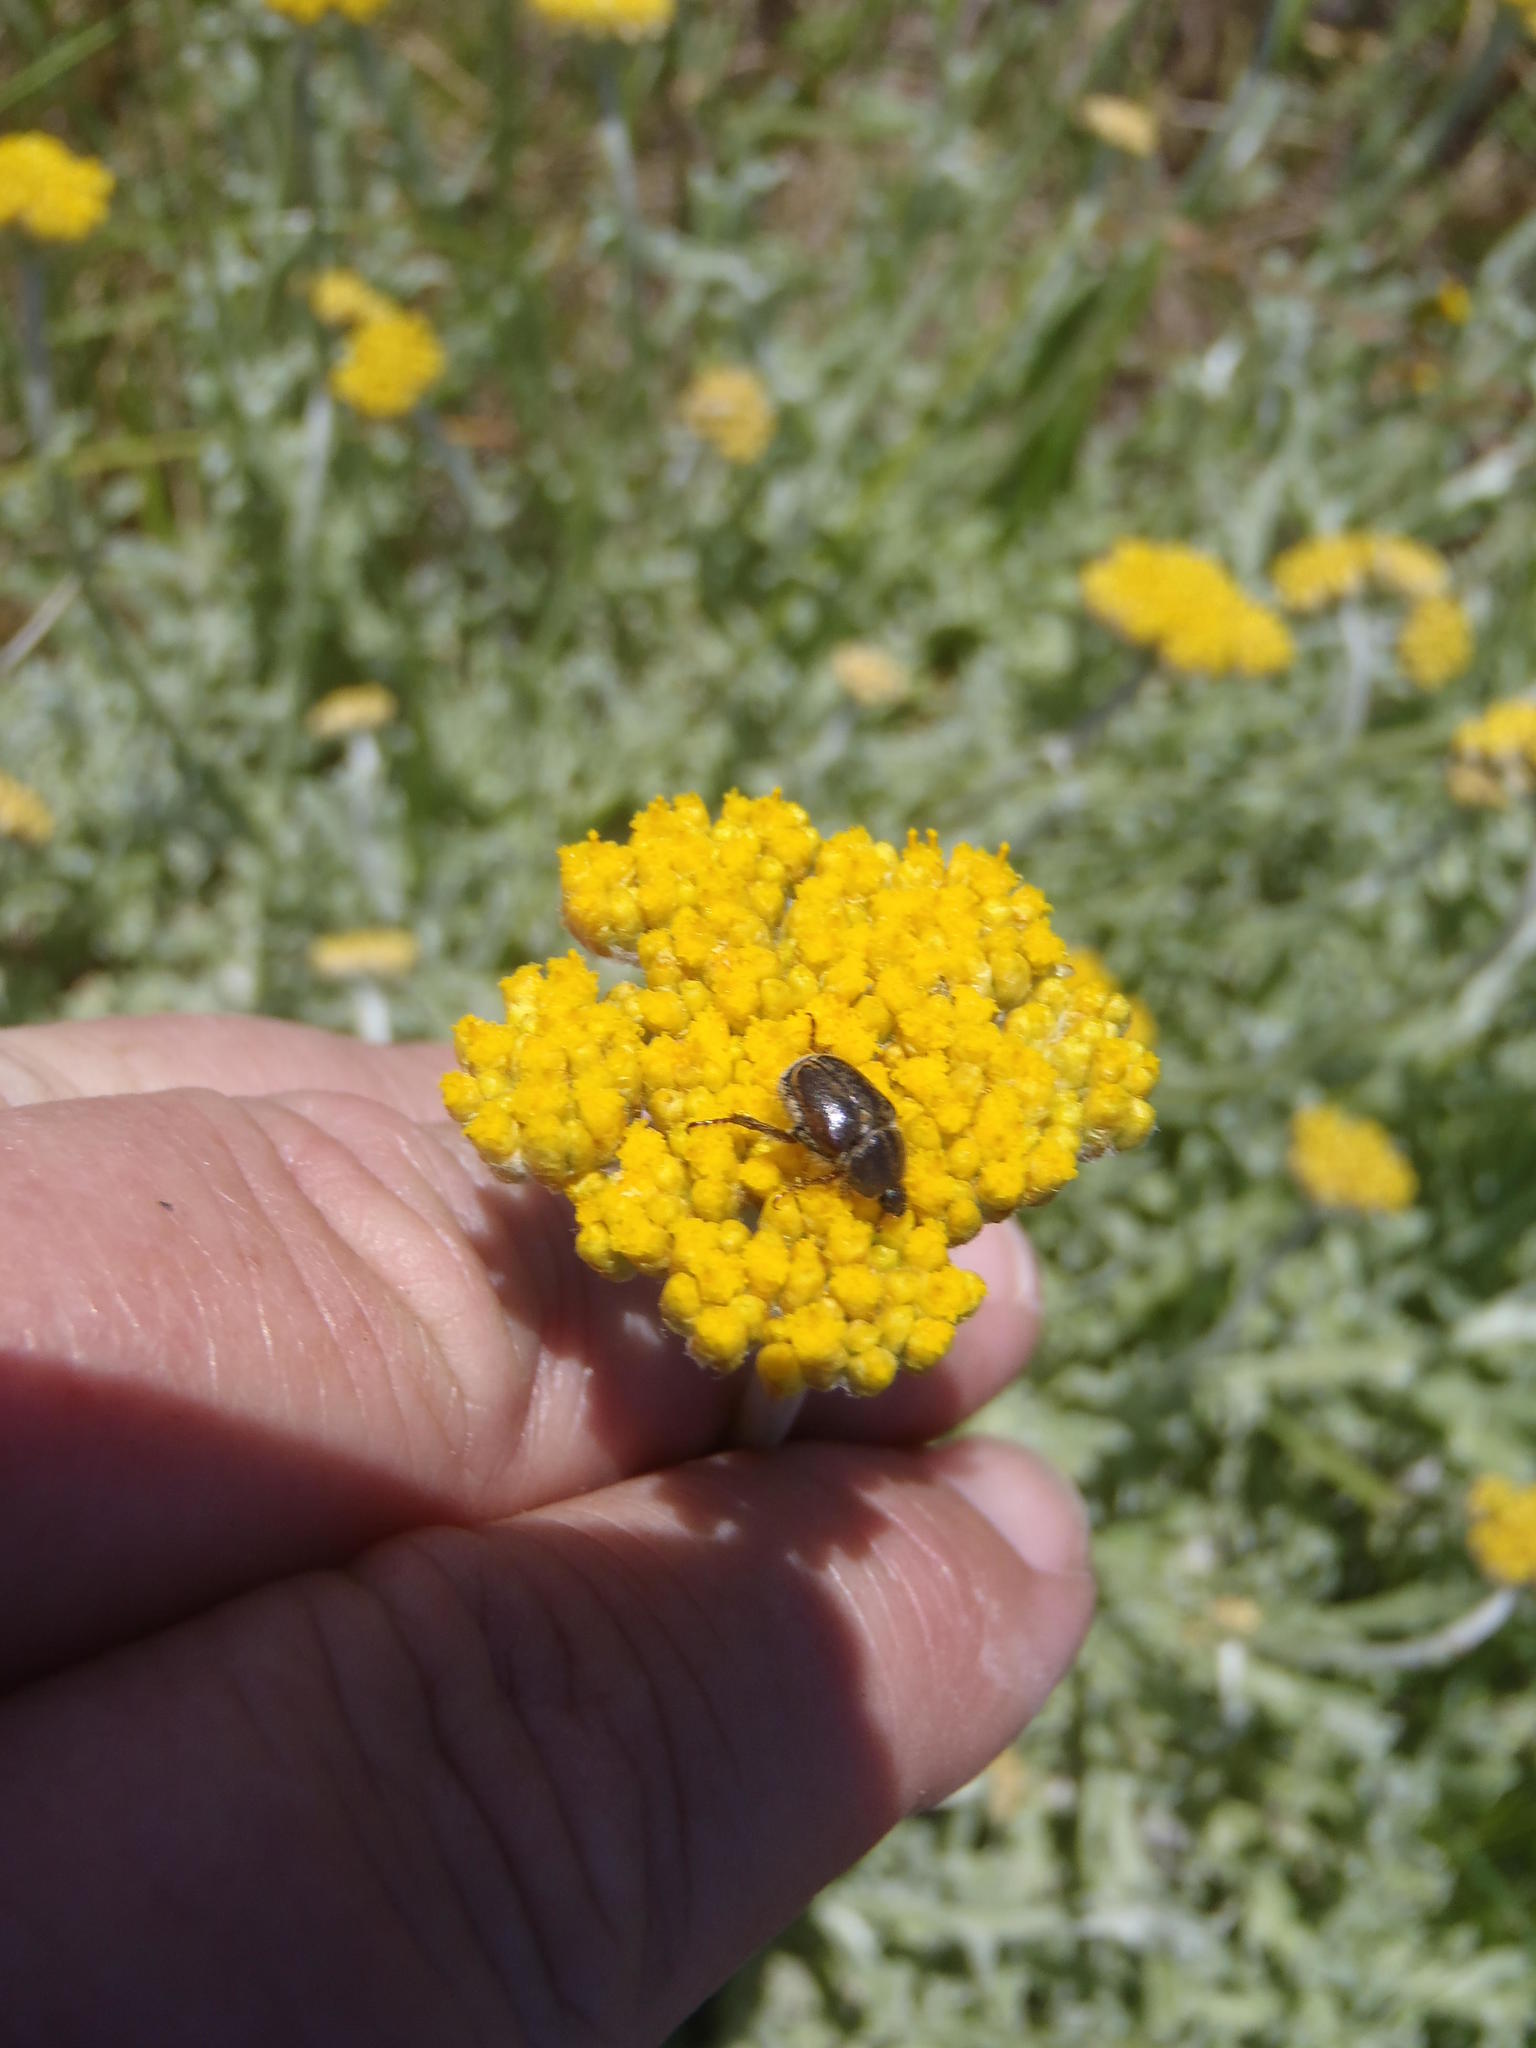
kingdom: Plantae
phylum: Tracheophyta
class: Magnoliopsida
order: Asterales
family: Asteraceae
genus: Helichrysum
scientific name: Helichrysum odoratissimum
